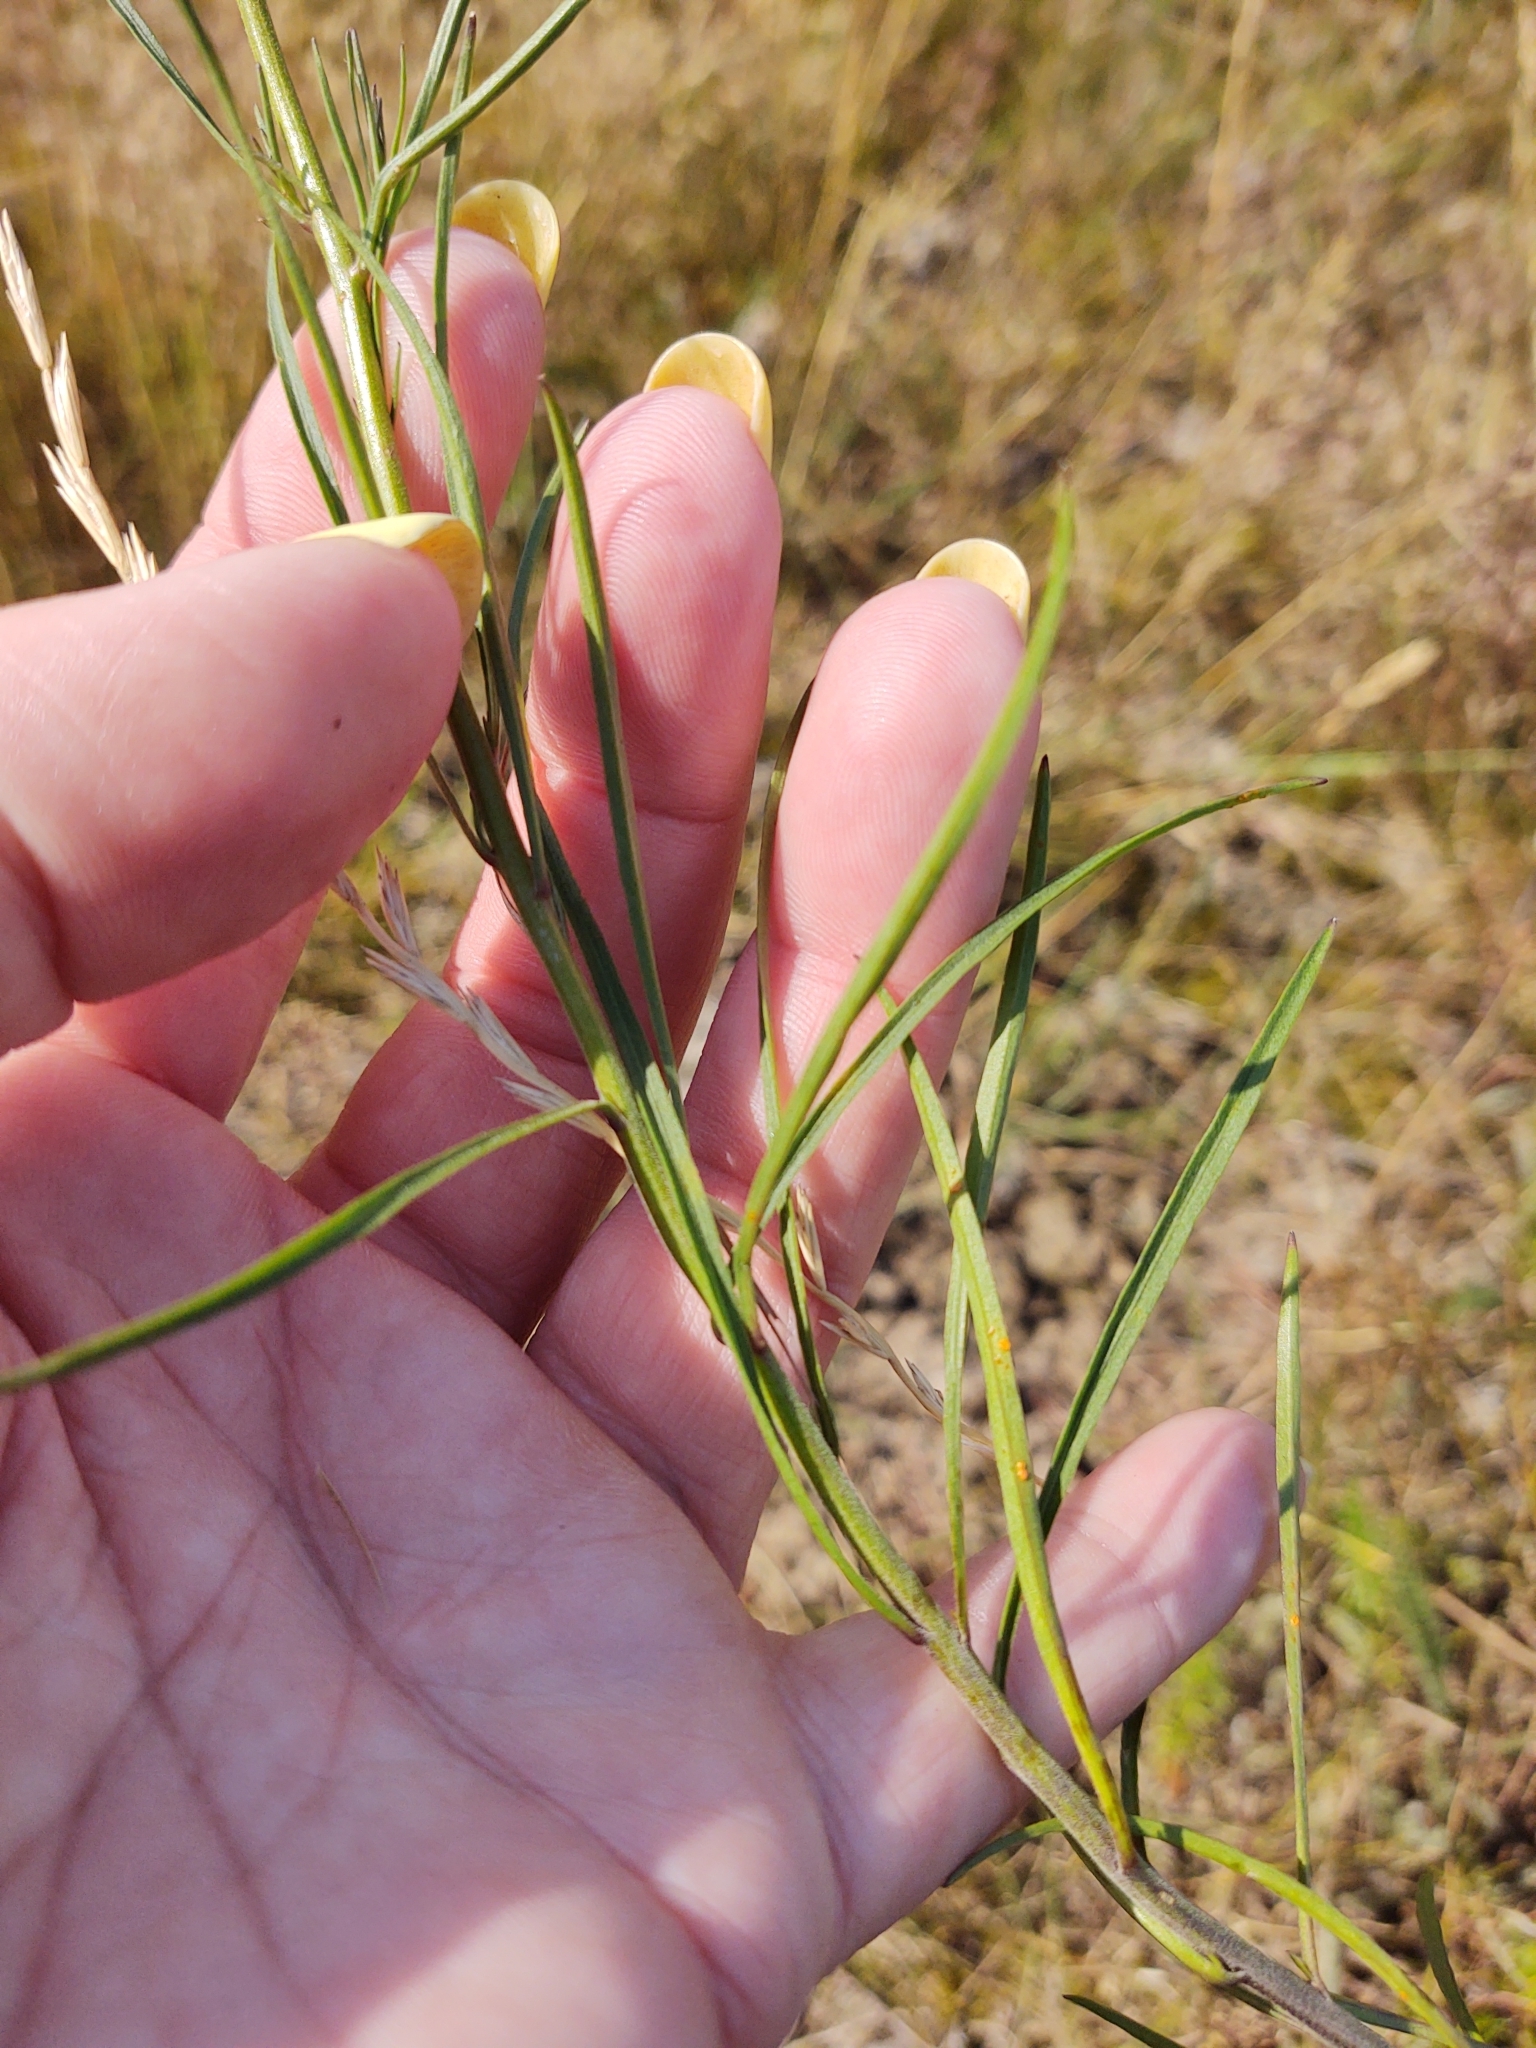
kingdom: Plantae
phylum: Tracheophyta
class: Magnoliopsida
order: Asterales
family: Campanulaceae
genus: Campanula
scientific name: Campanula rotundifolia
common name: Harebell
